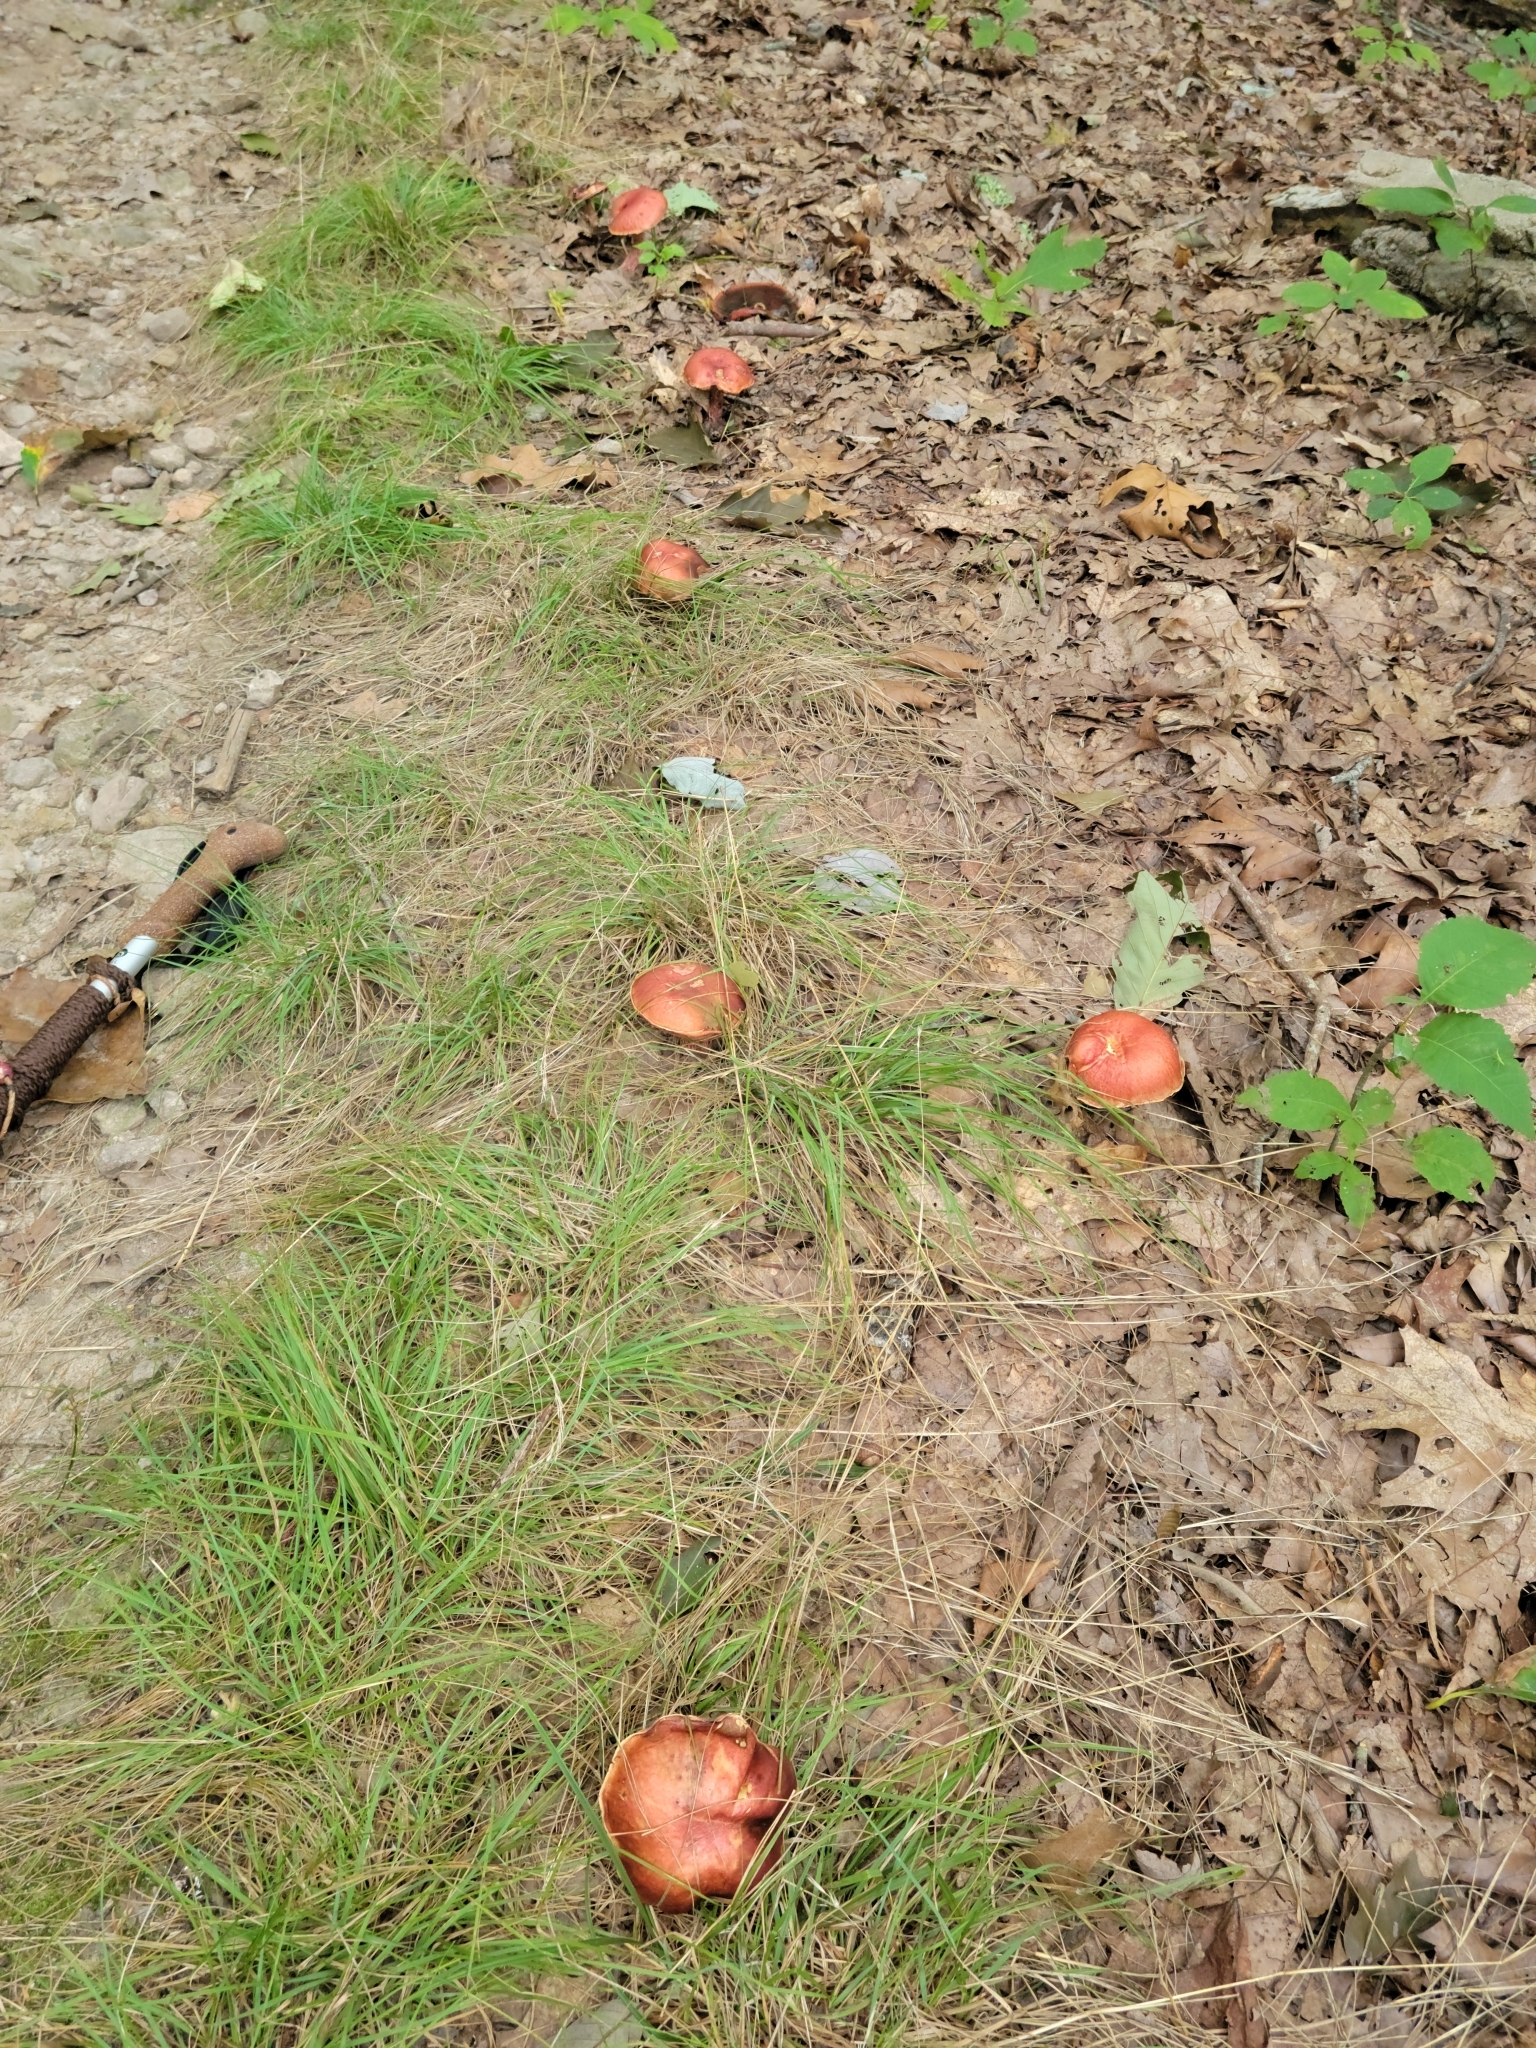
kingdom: Fungi
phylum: Basidiomycota
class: Agaricomycetes
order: Boletales
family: Boletaceae
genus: Butyriboletus
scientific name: Butyriboletus frostii
